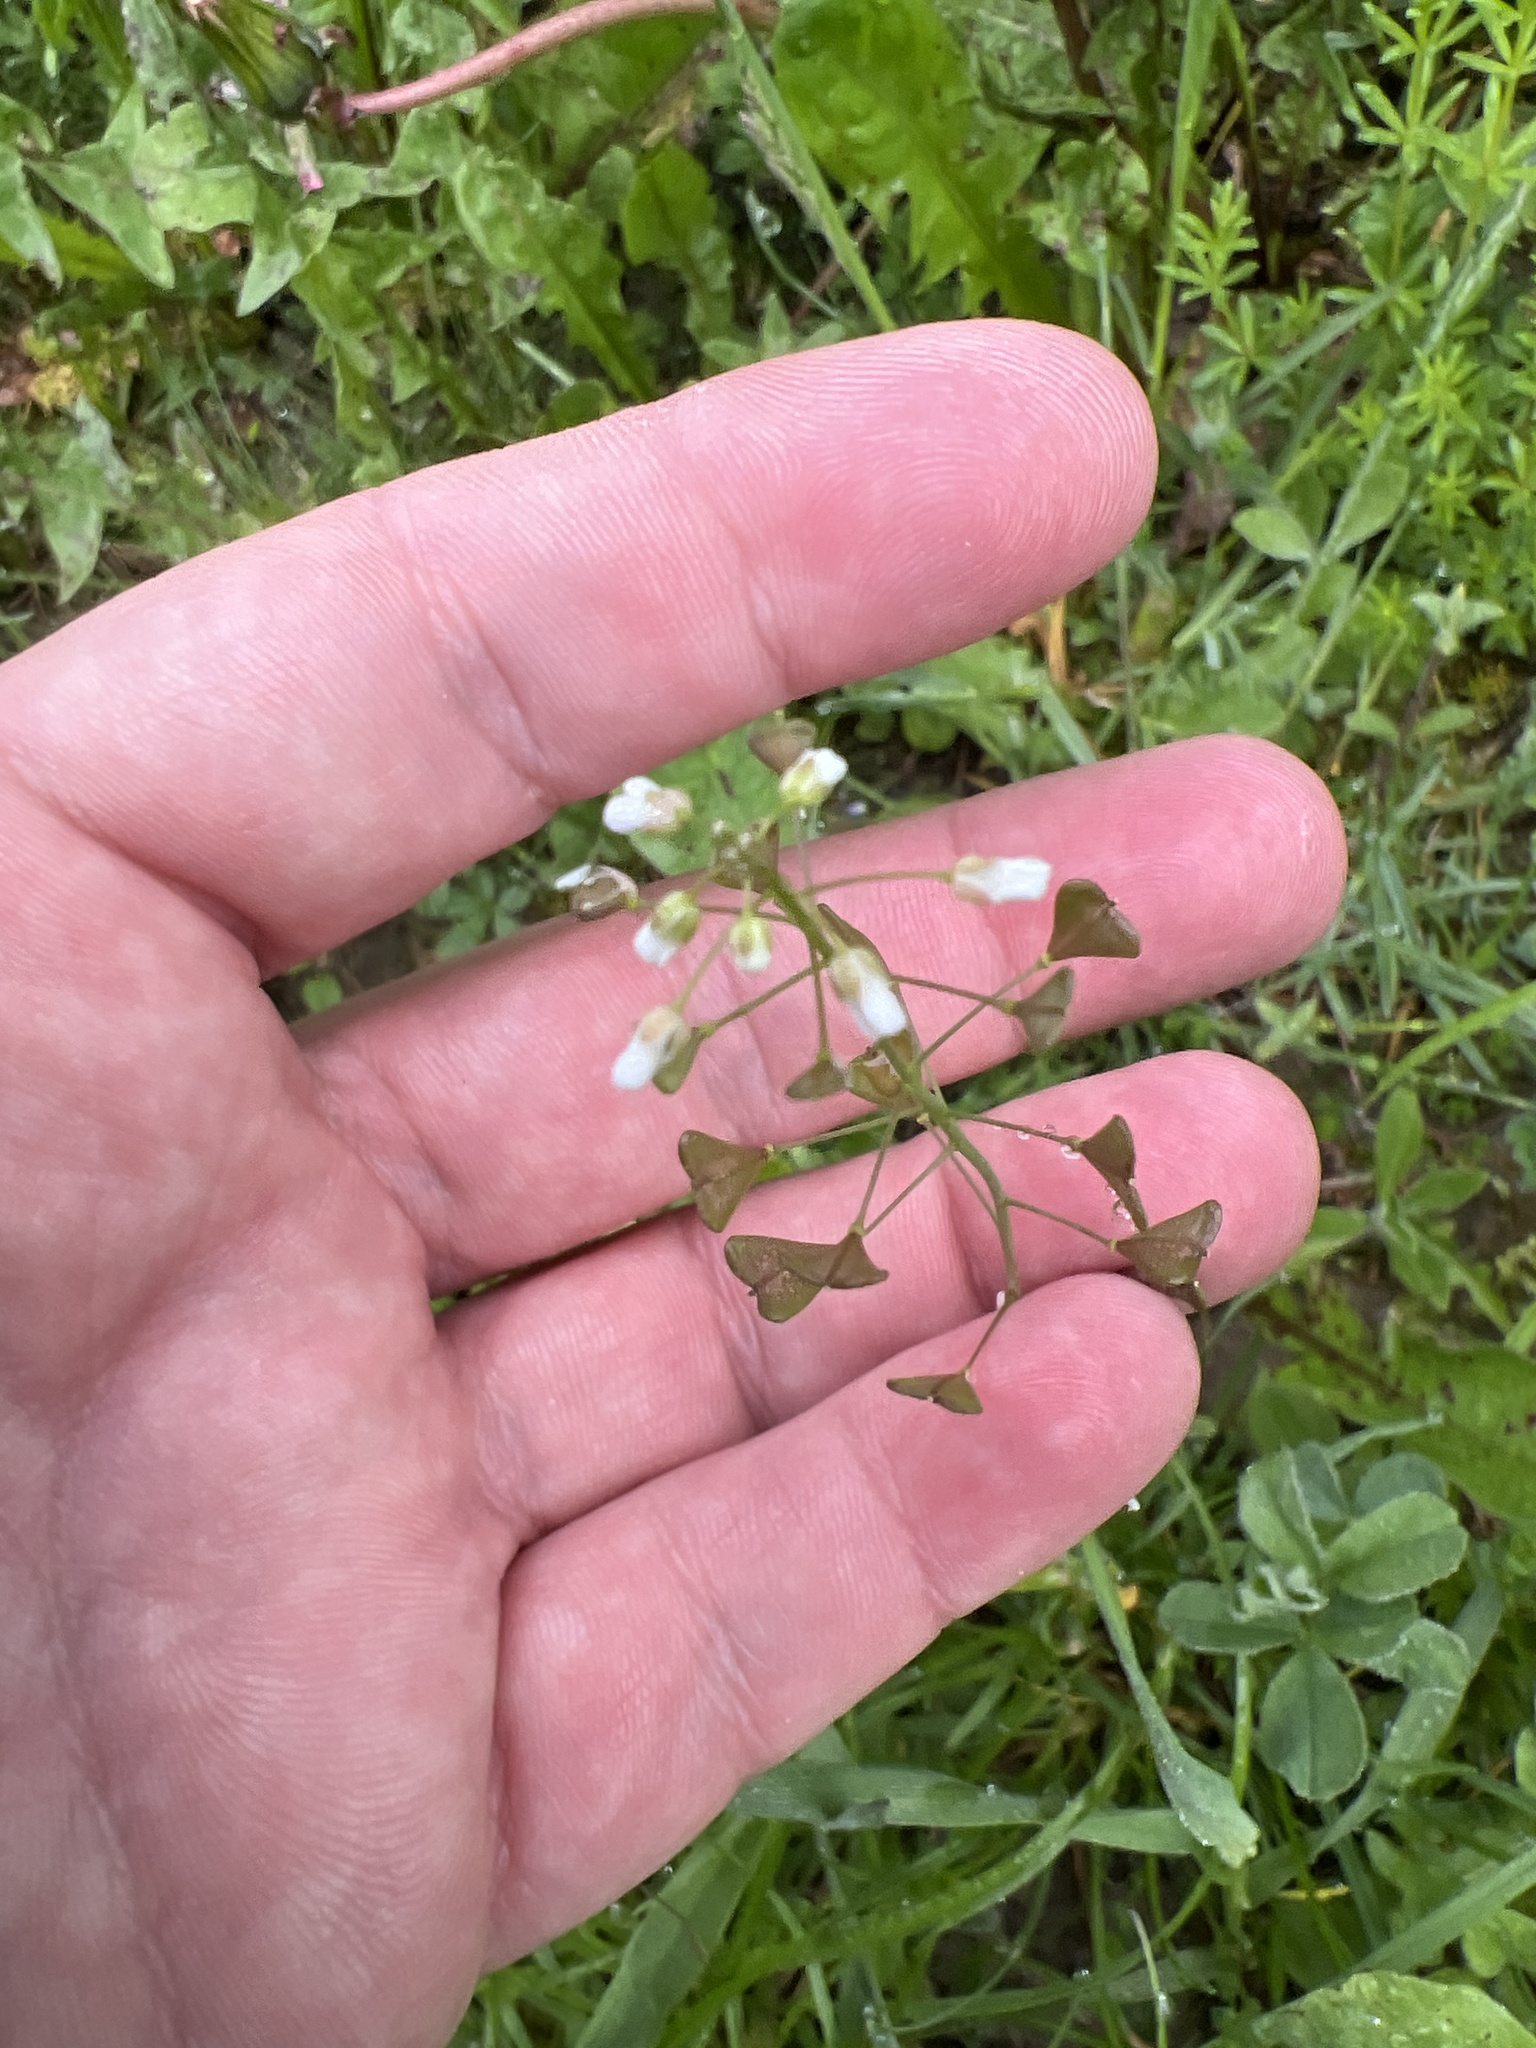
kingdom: Plantae
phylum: Tracheophyta
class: Magnoliopsida
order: Brassicales
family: Brassicaceae
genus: Capsella
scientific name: Capsella bursa-pastoris
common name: Shepherd's purse
